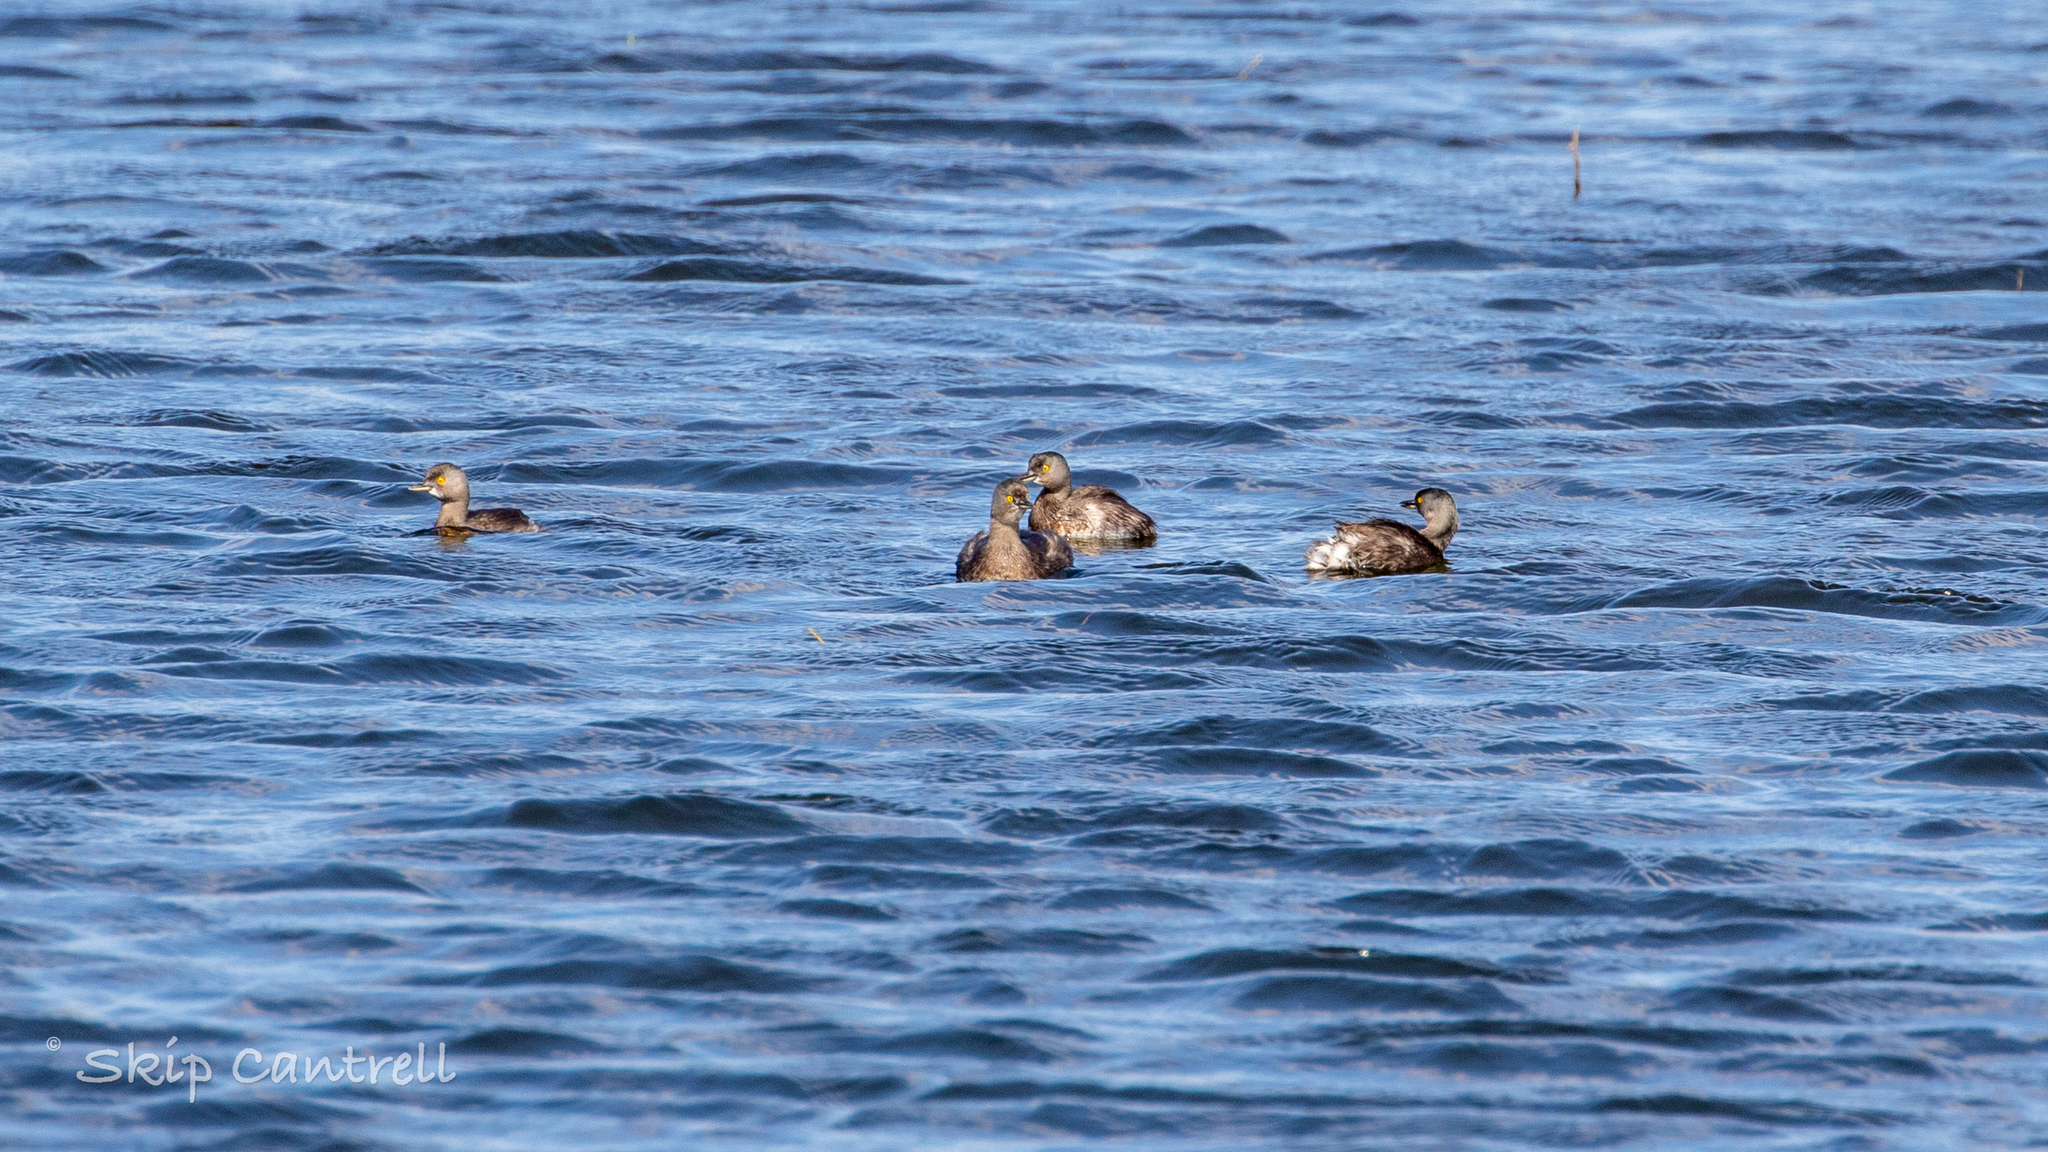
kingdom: Animalia
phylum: Chordata
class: Aves
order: Podicipediformes
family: Podicipedidae
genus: Tachybaptus
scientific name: Tachybaptus dominicus
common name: Least grebe
